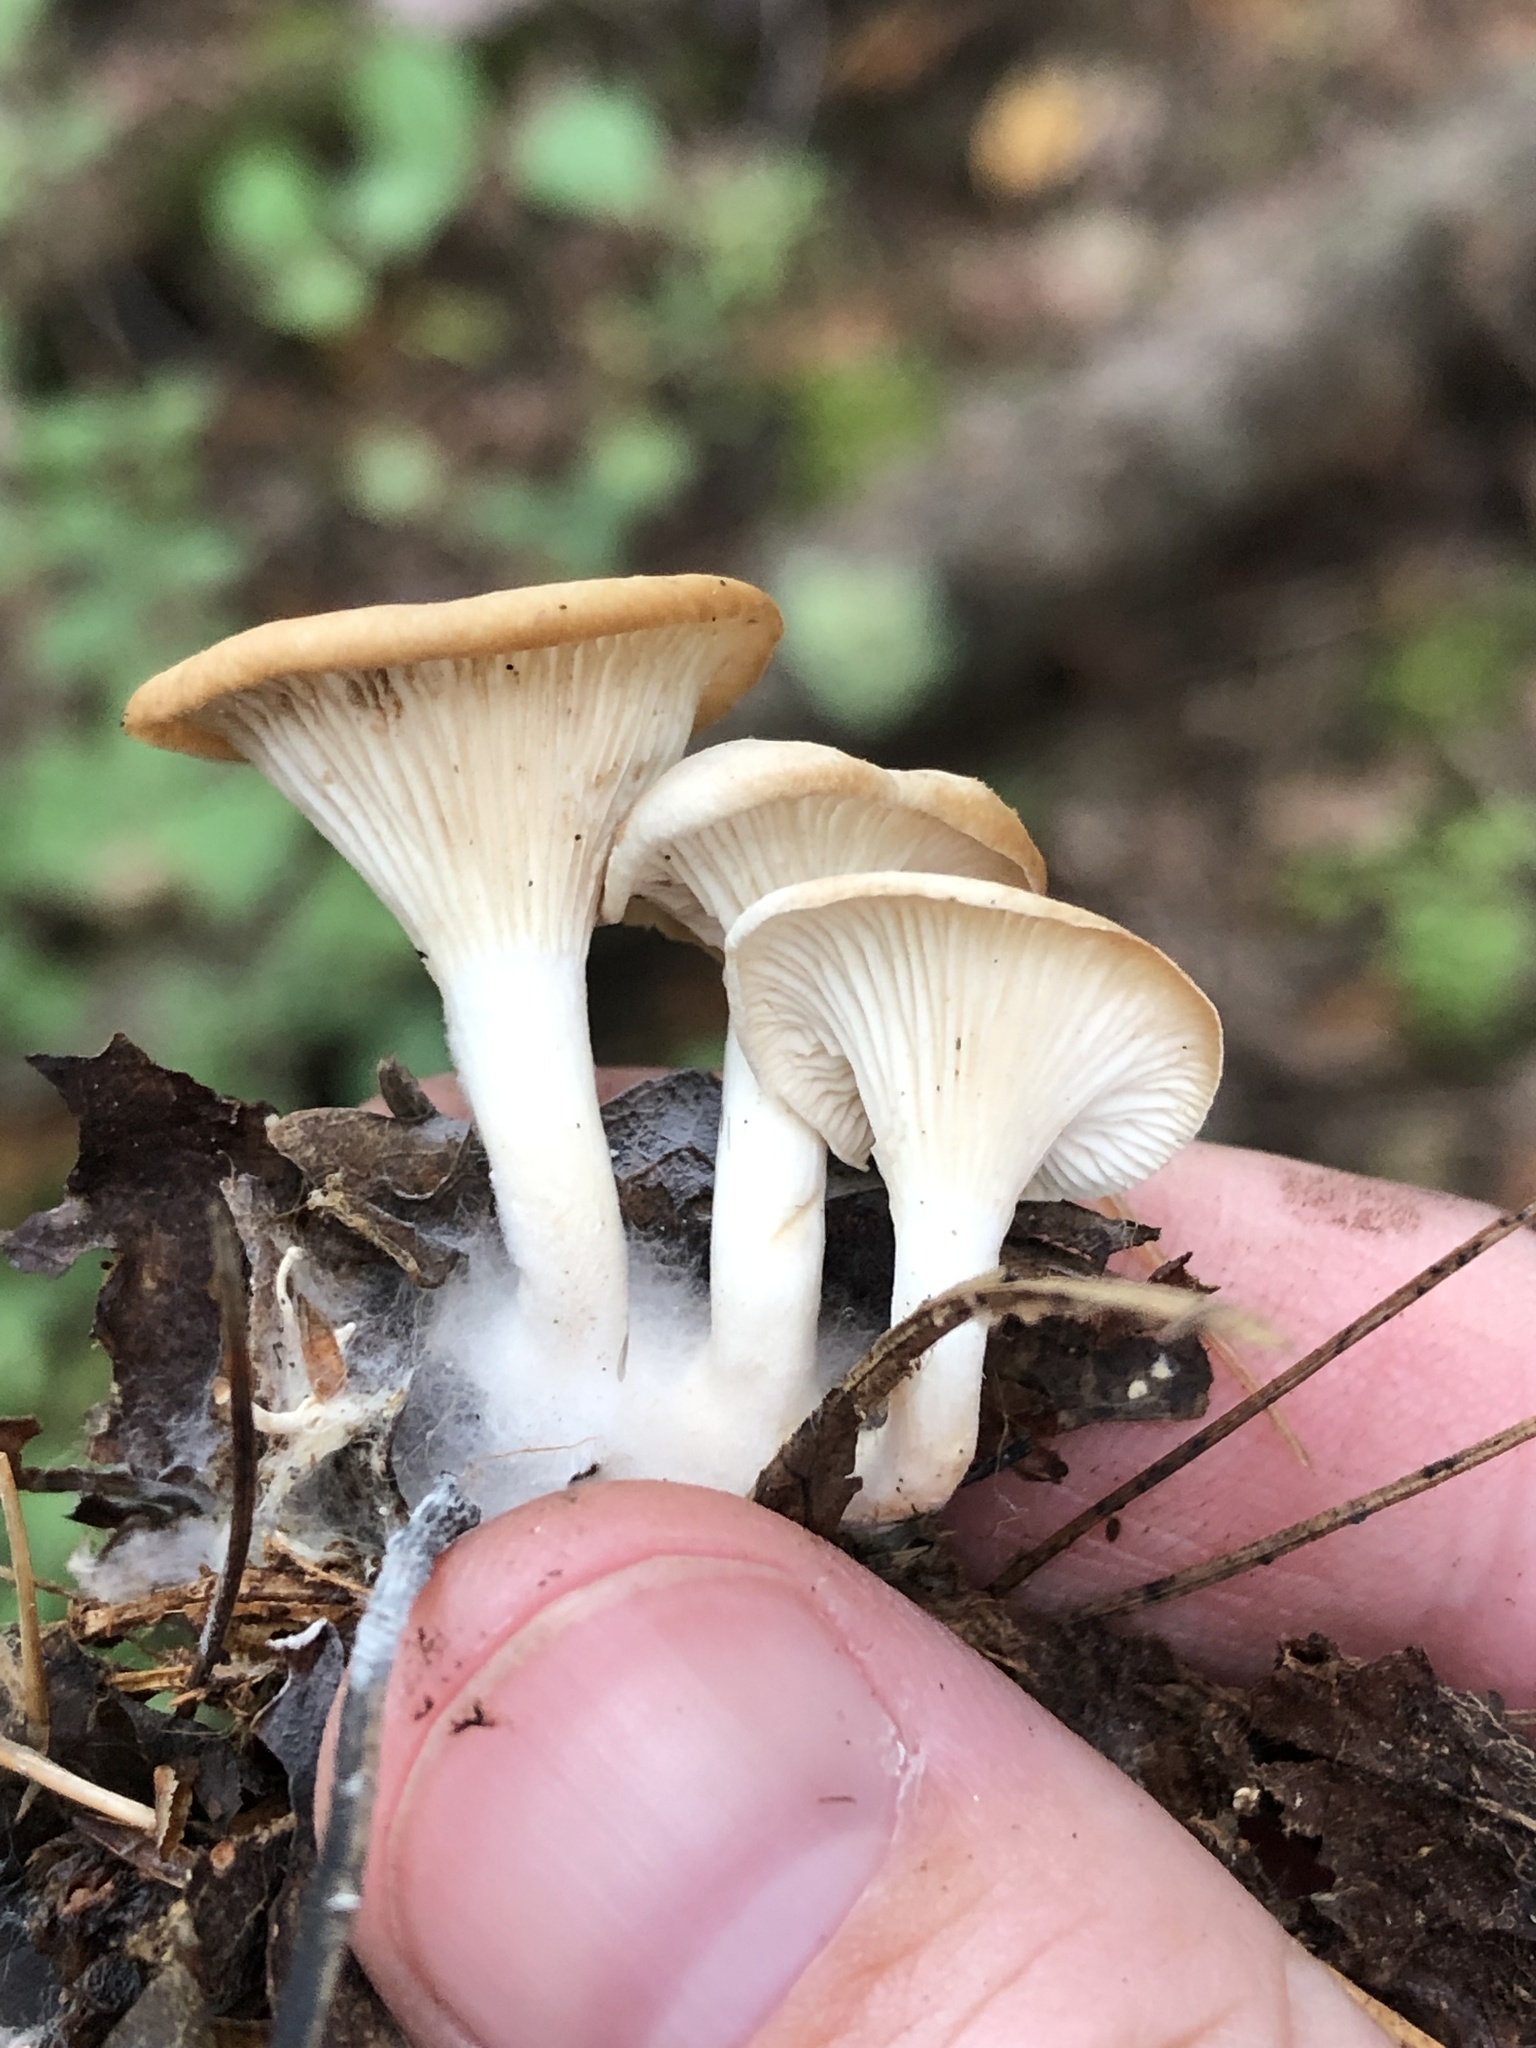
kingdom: Fungi
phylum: Basidiomycota
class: Agaricomycetes
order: Agaricales
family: Tricholomataceae
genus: Infundibulicybe
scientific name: Infundibulicybe gibba
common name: Common funnel
